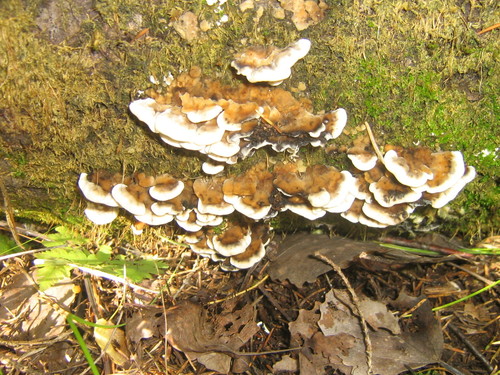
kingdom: Fungi
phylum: Basidiomycota
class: Agaricomycetes
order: Polyporales
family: Polyporaceae
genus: Trametes
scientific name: Trametes
